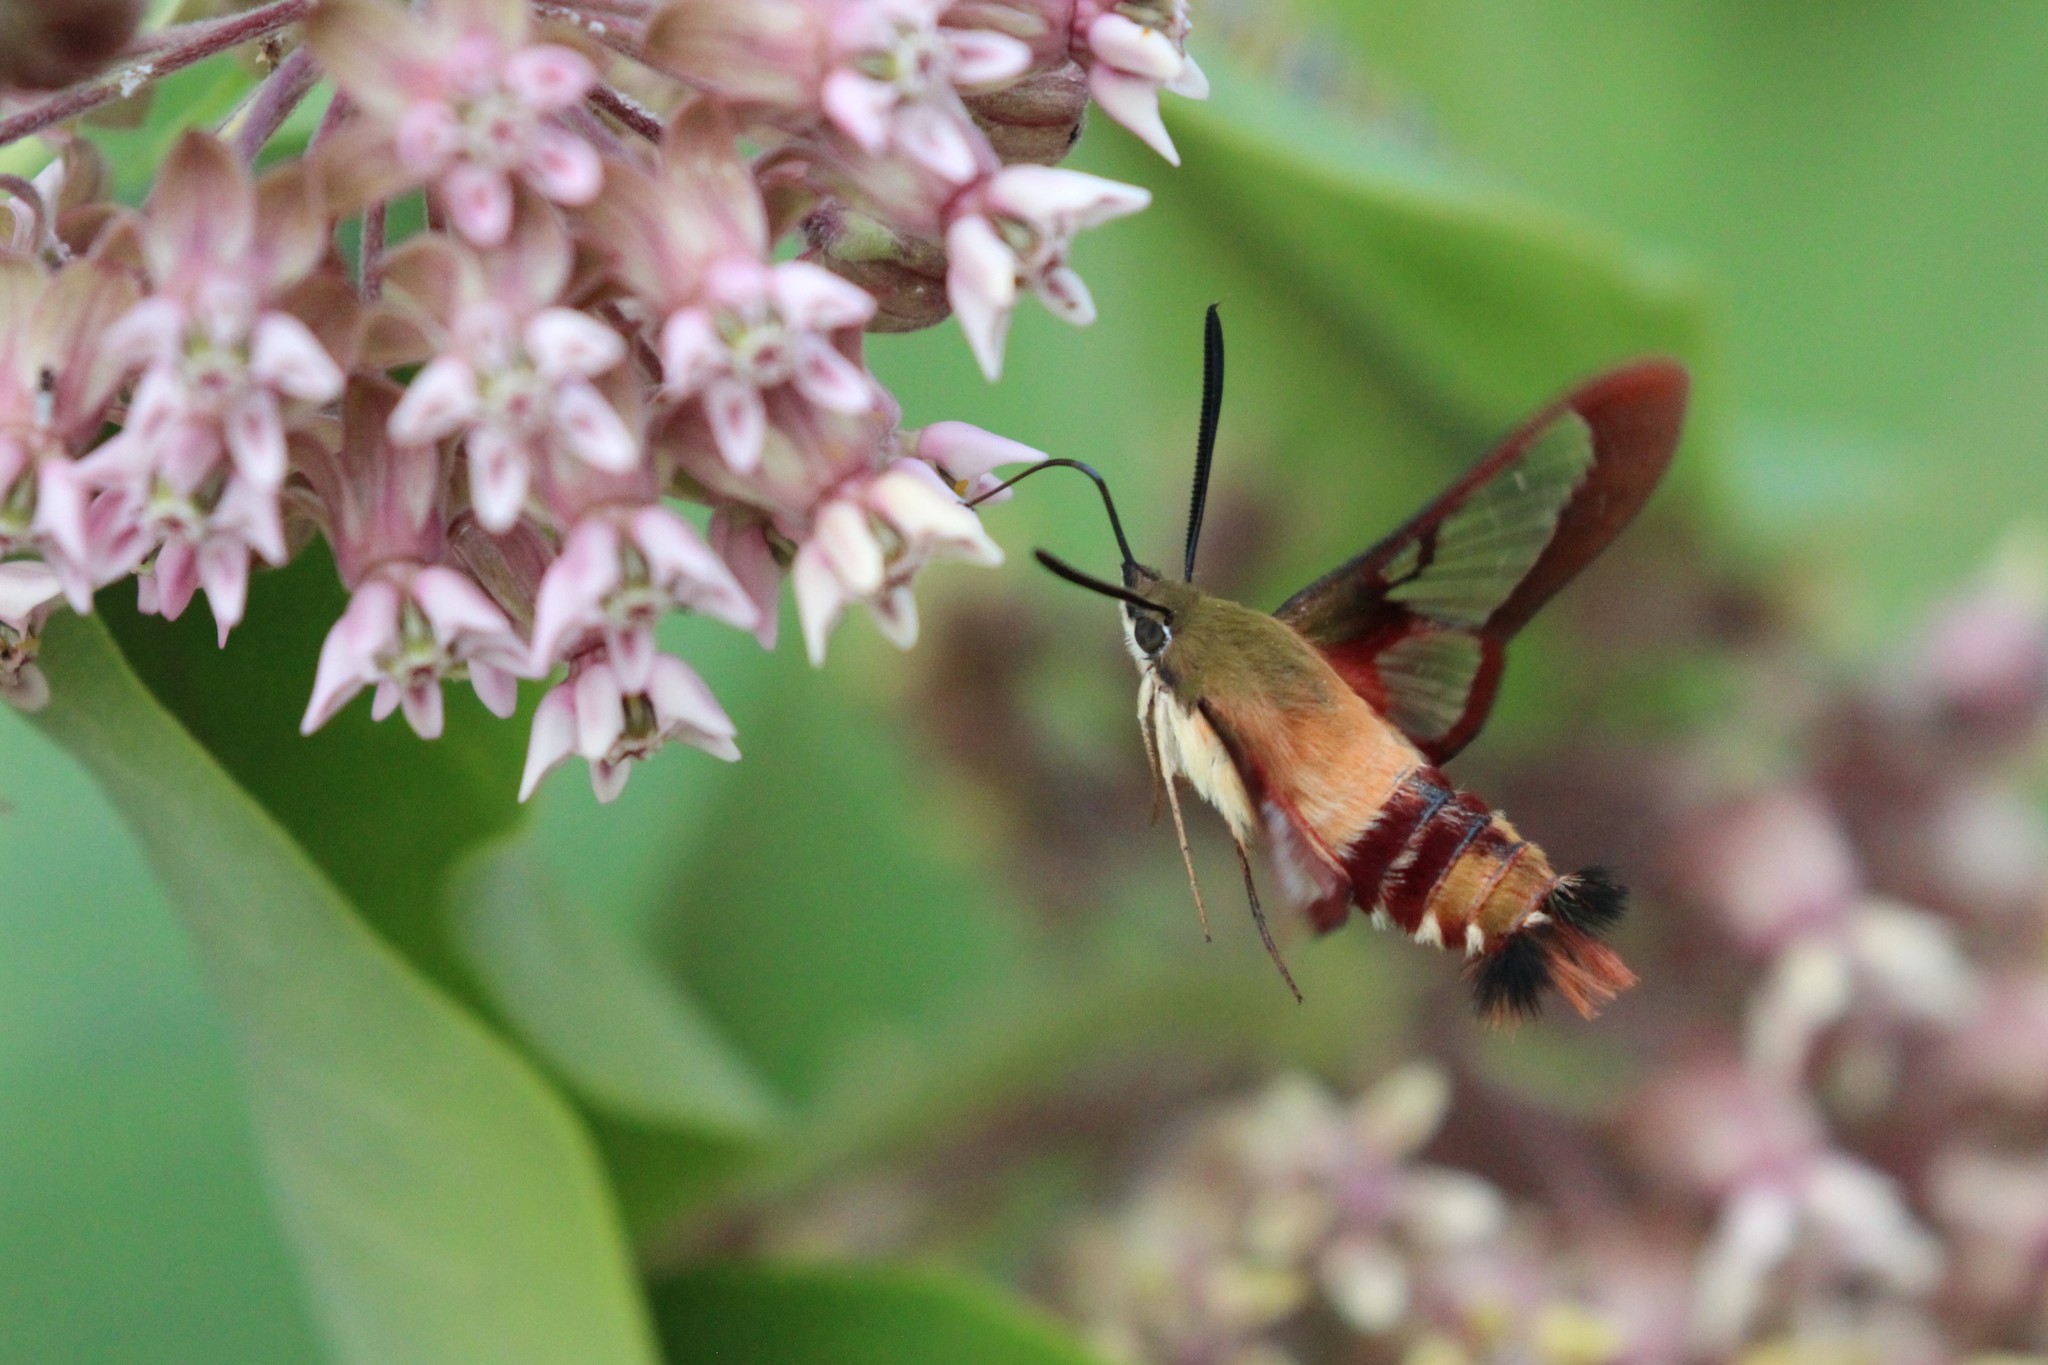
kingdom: Animalia
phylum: Arthropoda
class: Insecta
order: Lepidoptera
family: Sphingidae
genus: Hemaris
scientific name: Hemaris thysbe
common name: Common clear-wing
